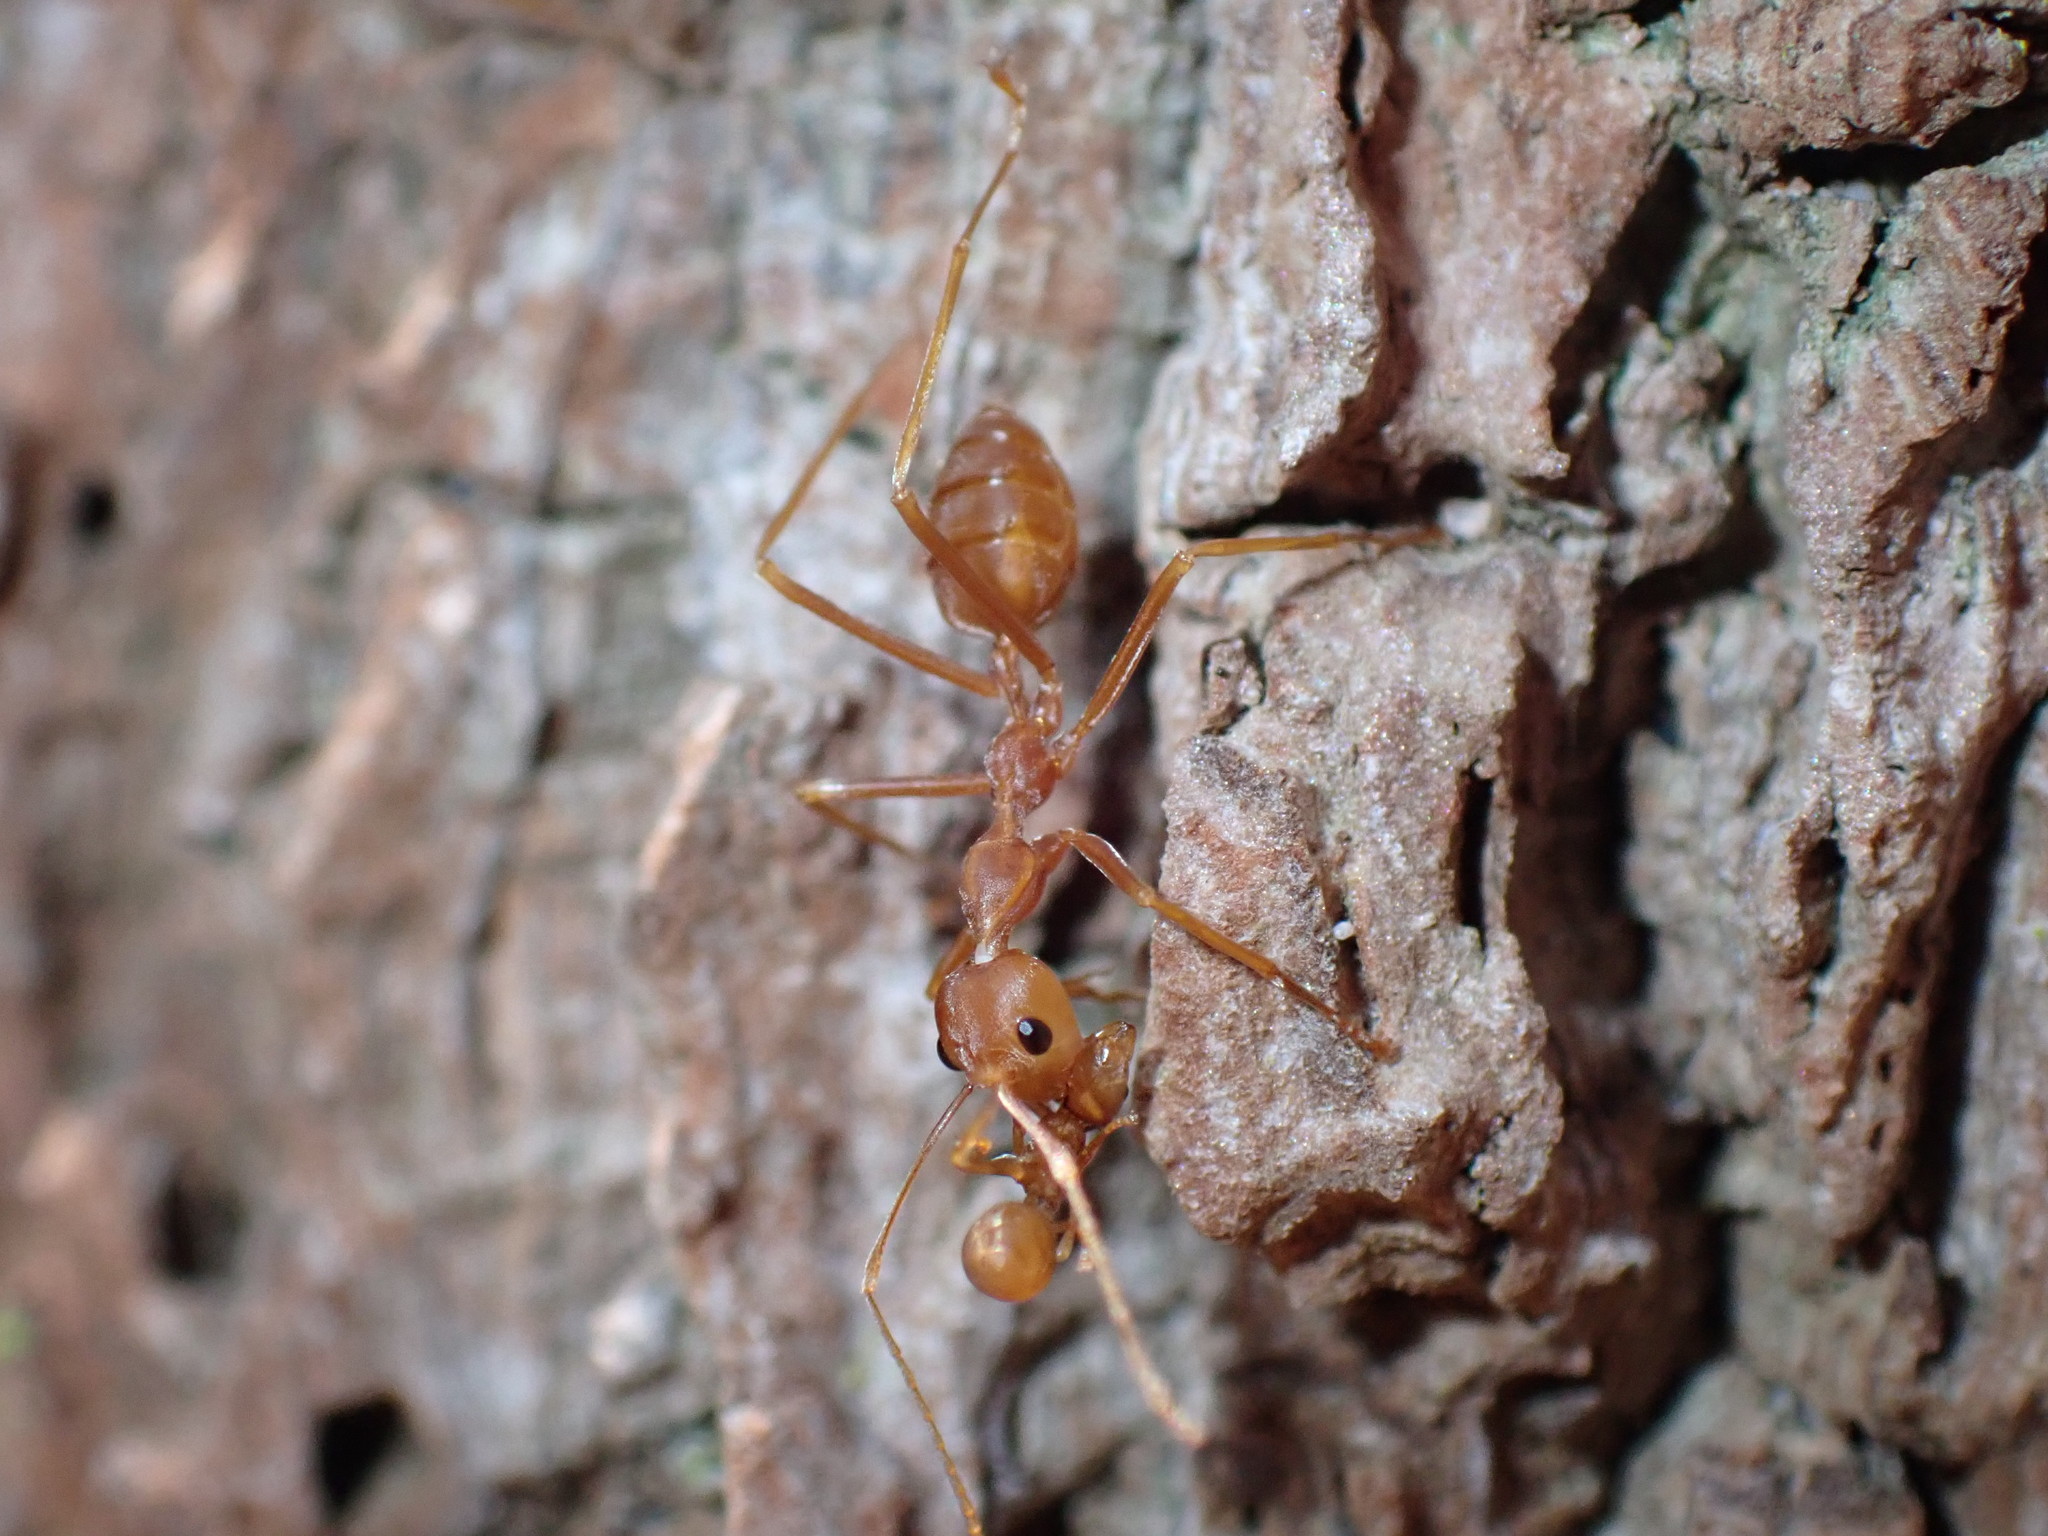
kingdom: Animalia
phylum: Arthropoda
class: Insecta
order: Hymenoptera
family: Formicidae
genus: Oecophylla
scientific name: Oecophylla smaragdina
